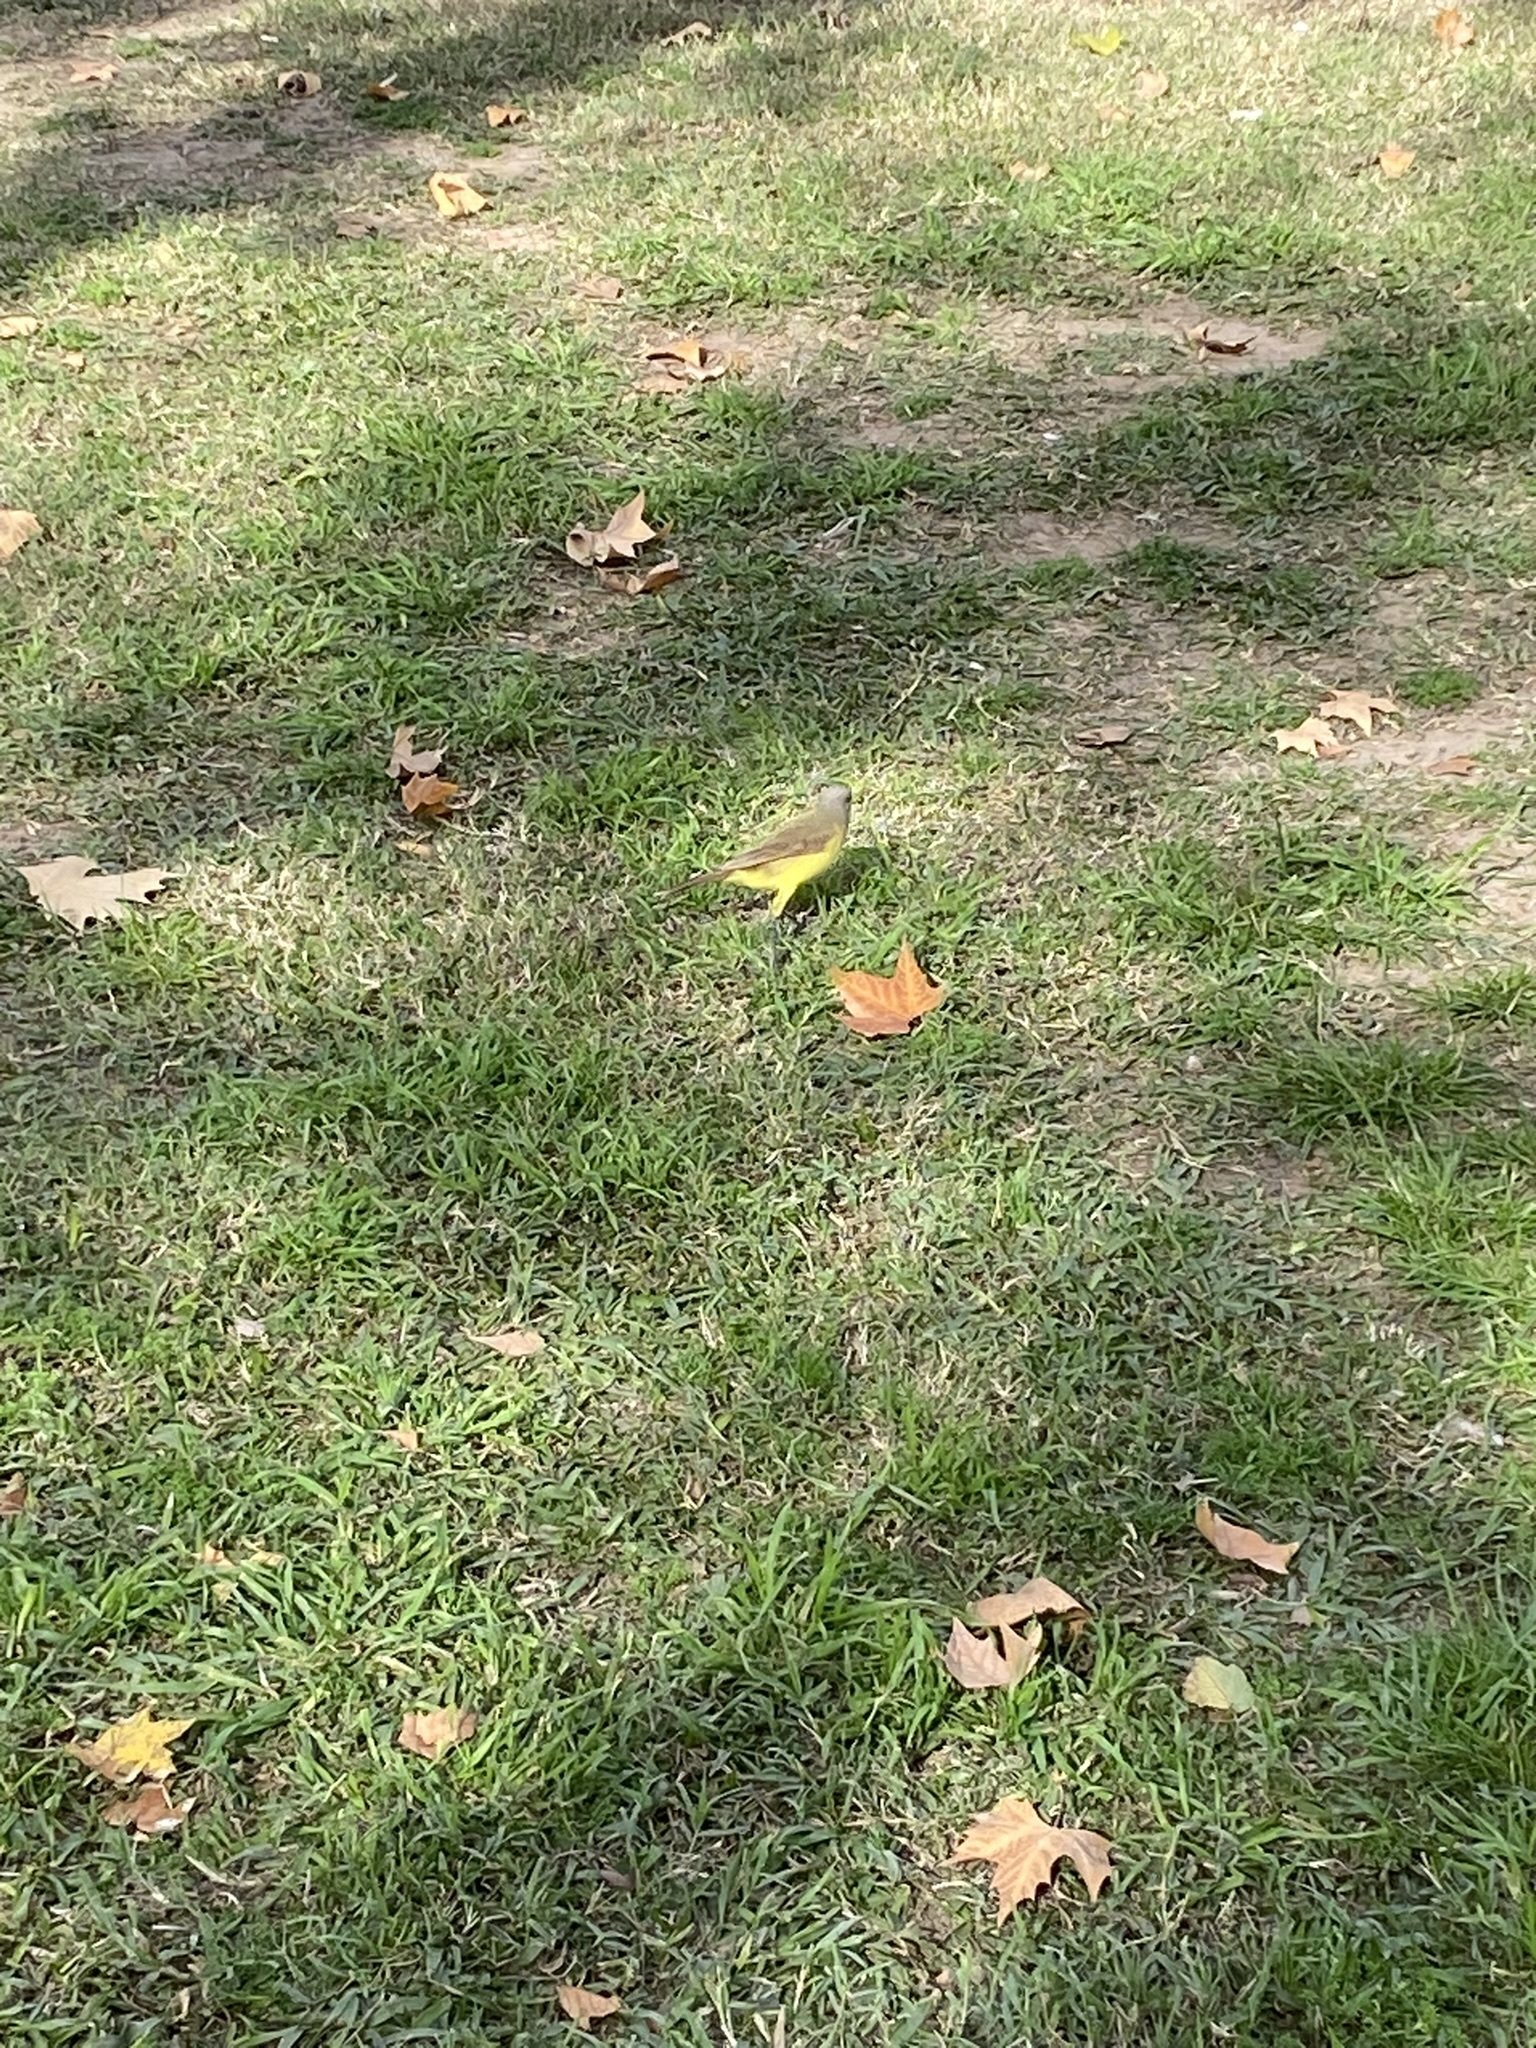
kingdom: Animalia
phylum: Chordata
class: Aves
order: Passeriformes
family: Tyrannidae
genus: Machetornis
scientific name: Machetornis rixosa
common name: Cattle tyrant
